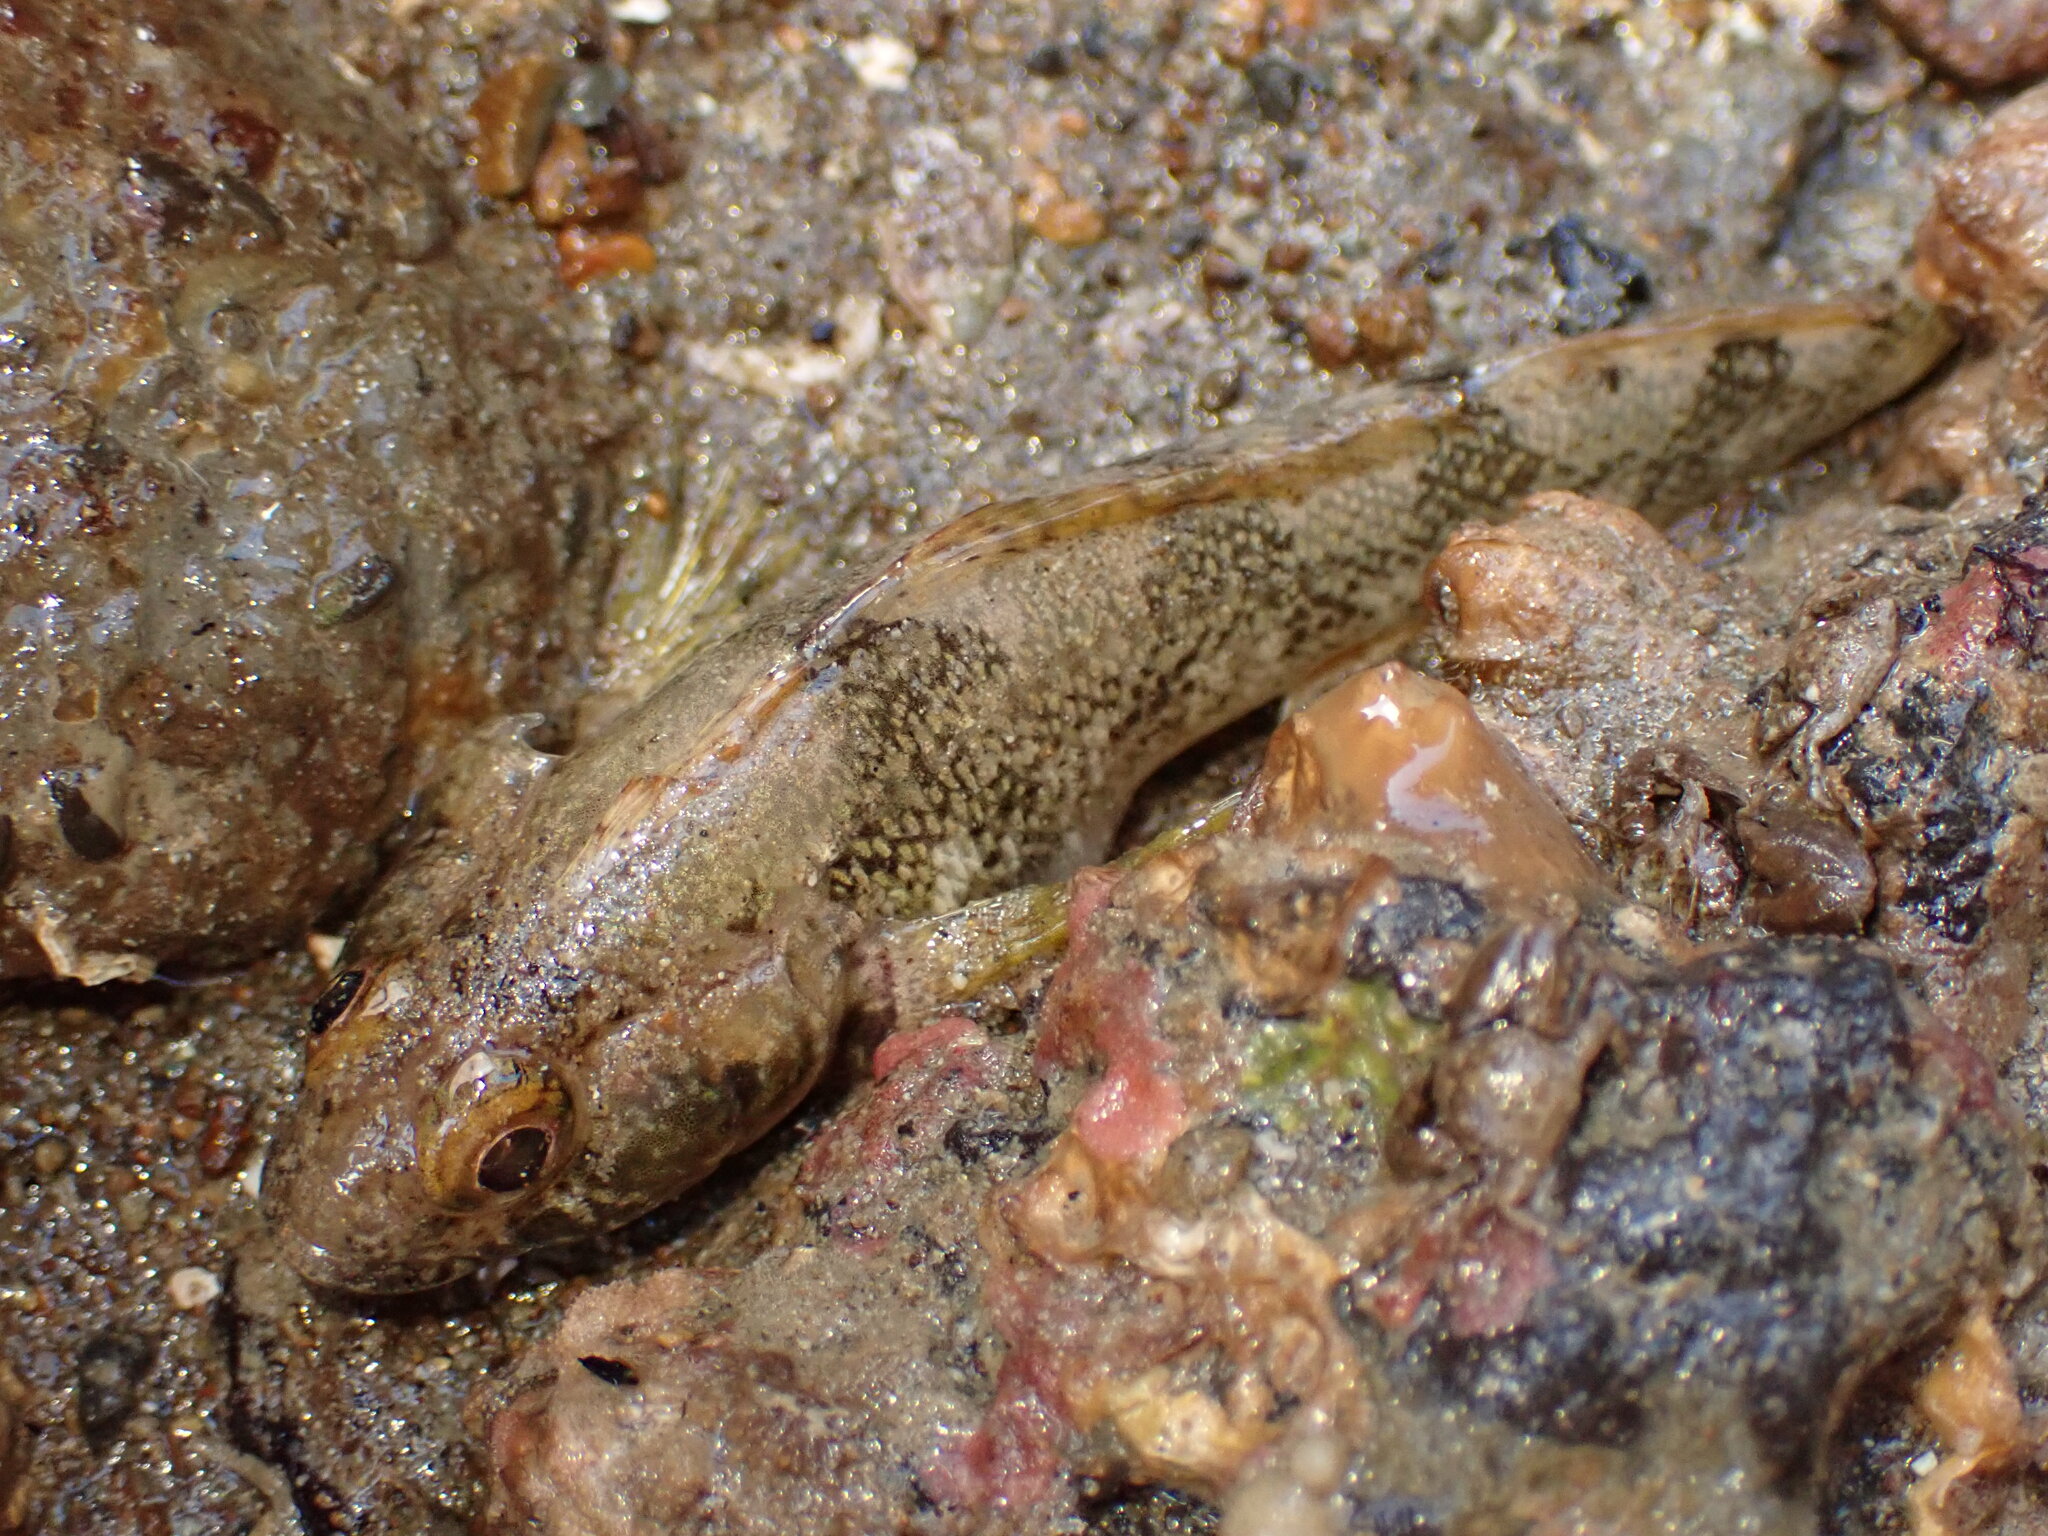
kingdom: Animalia
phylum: Chordata
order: Perciformes
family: Tripterygiidae
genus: Forsterygion
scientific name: Forsterygion capito
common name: Spotted robust triplefin
